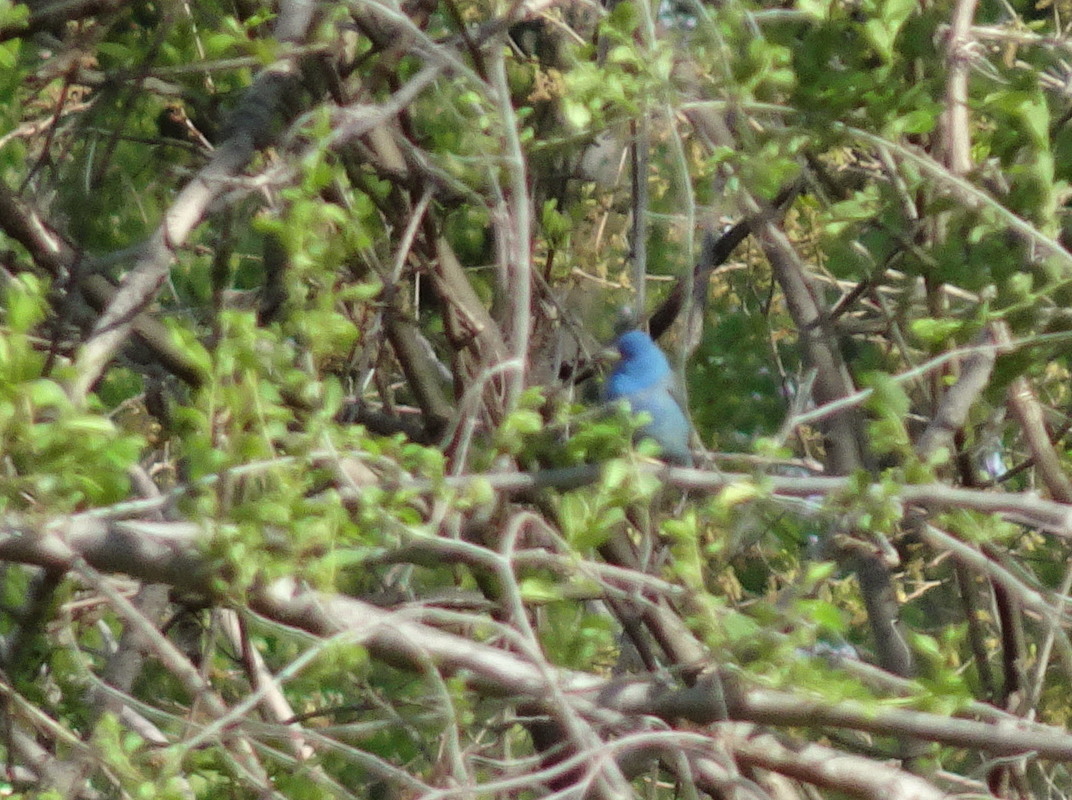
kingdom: Animalia
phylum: Chordata
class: Aves
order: Passeriformes
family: Cardinalidae
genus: Passerina
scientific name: Passerina cyanea
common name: Indigo bunting
